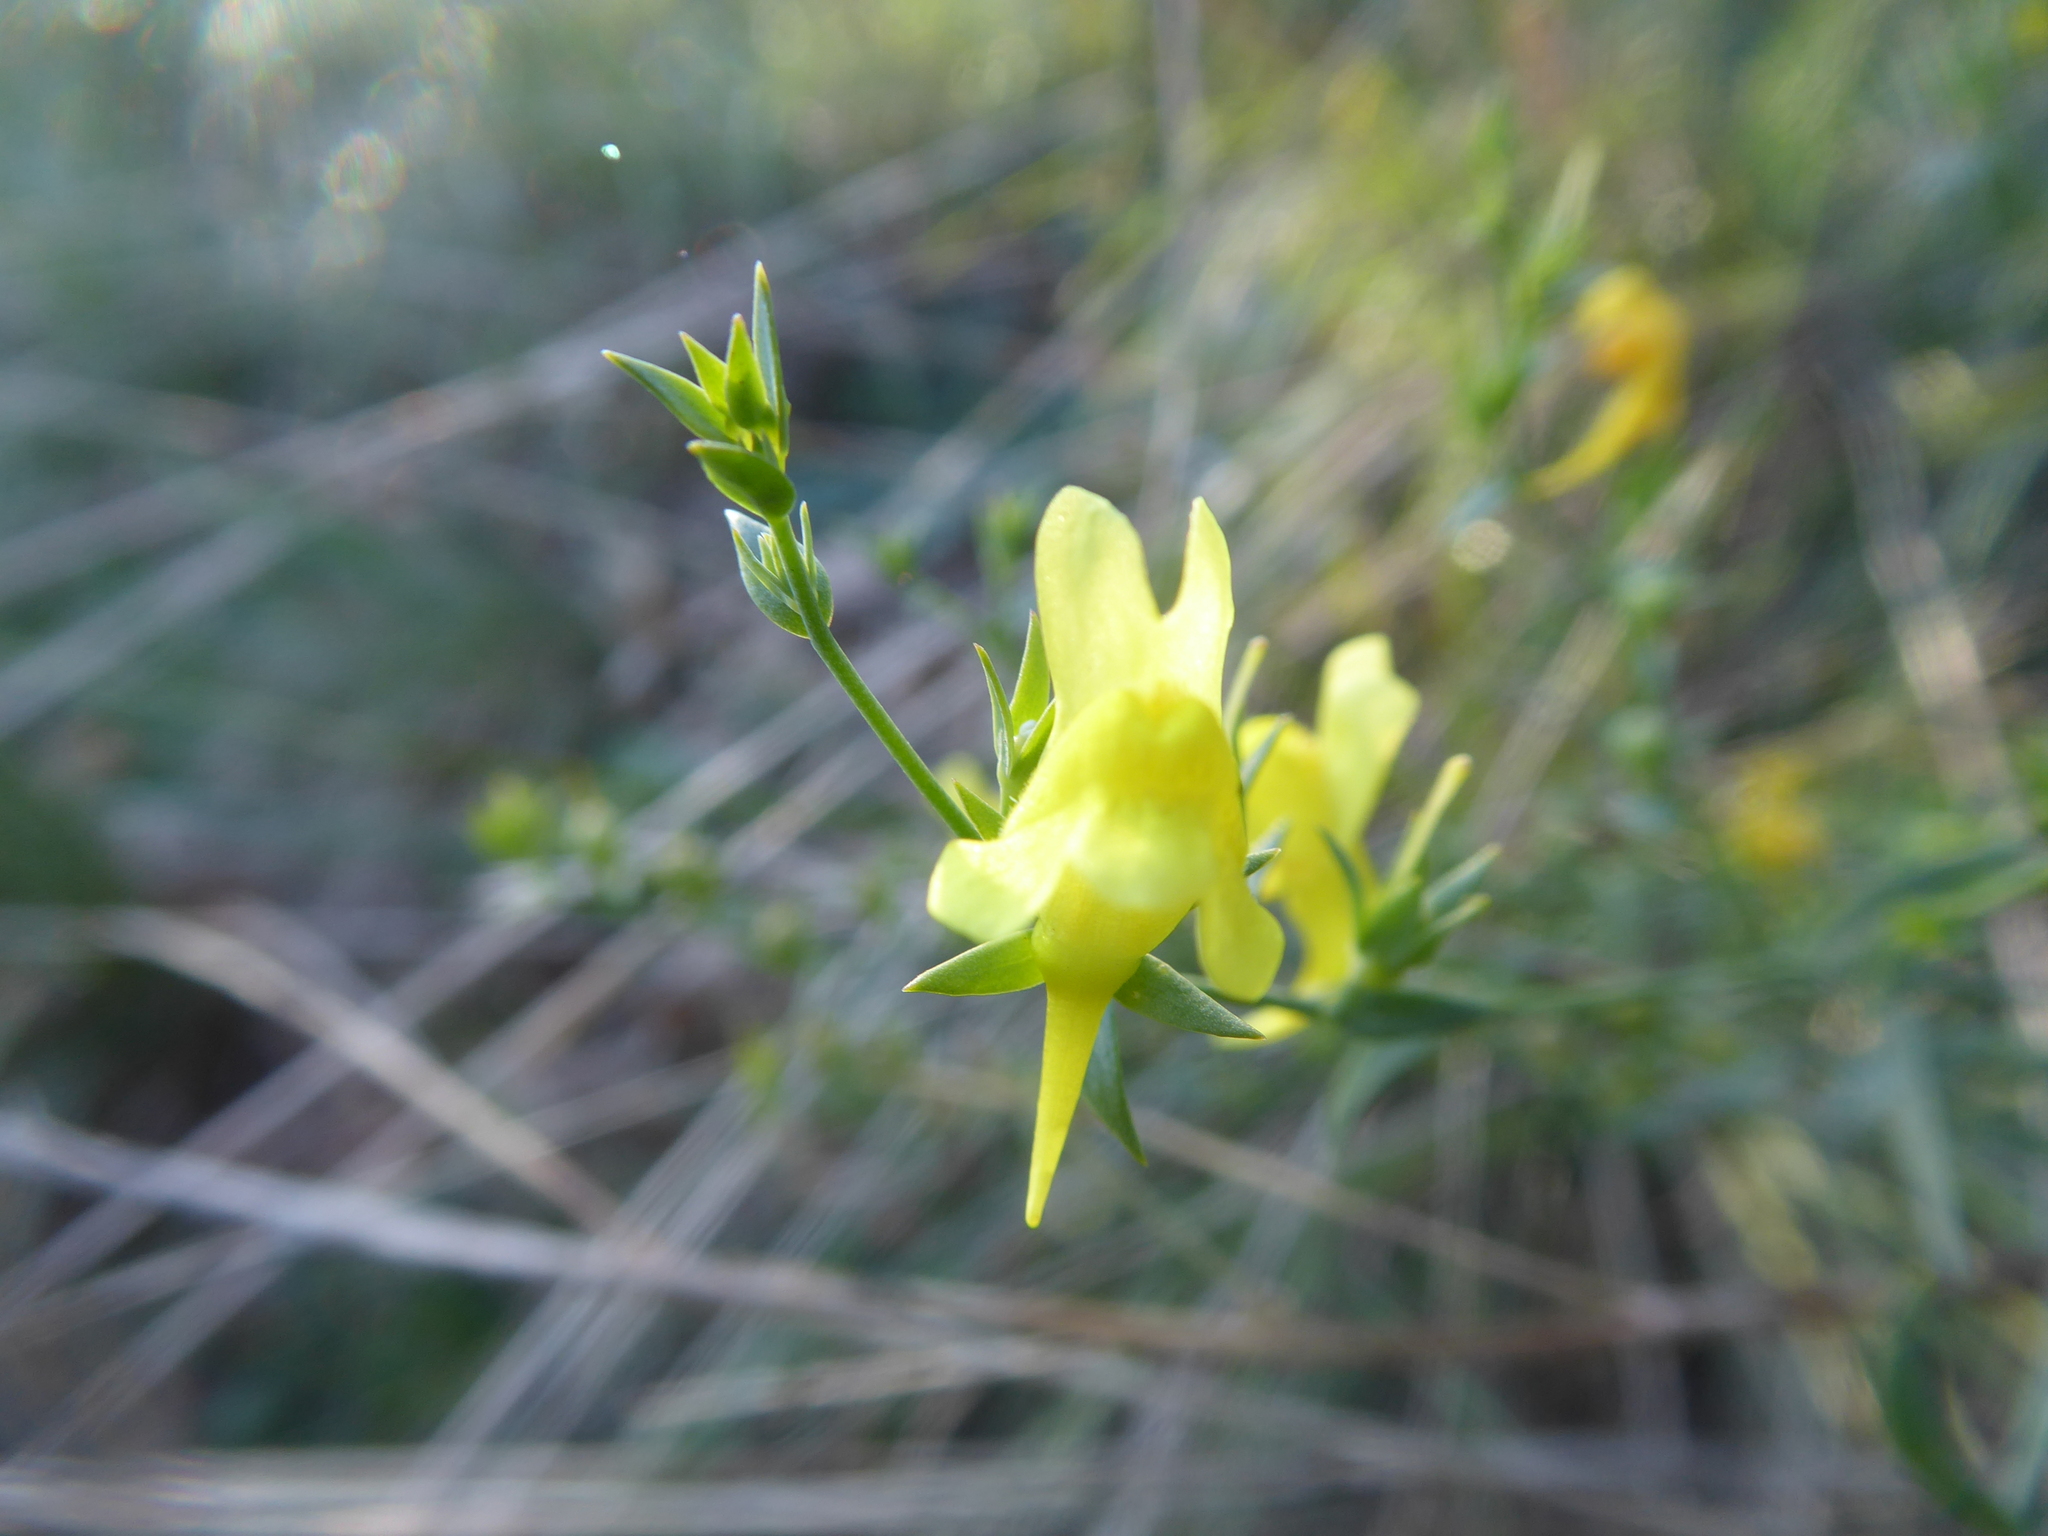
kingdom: Plantae
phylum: Tracheophyta
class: Magnoliopsida
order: Lamiales
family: Plantaginaceae
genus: Linaria
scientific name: Linaria genistifolia
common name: Broomleaf toadflax
